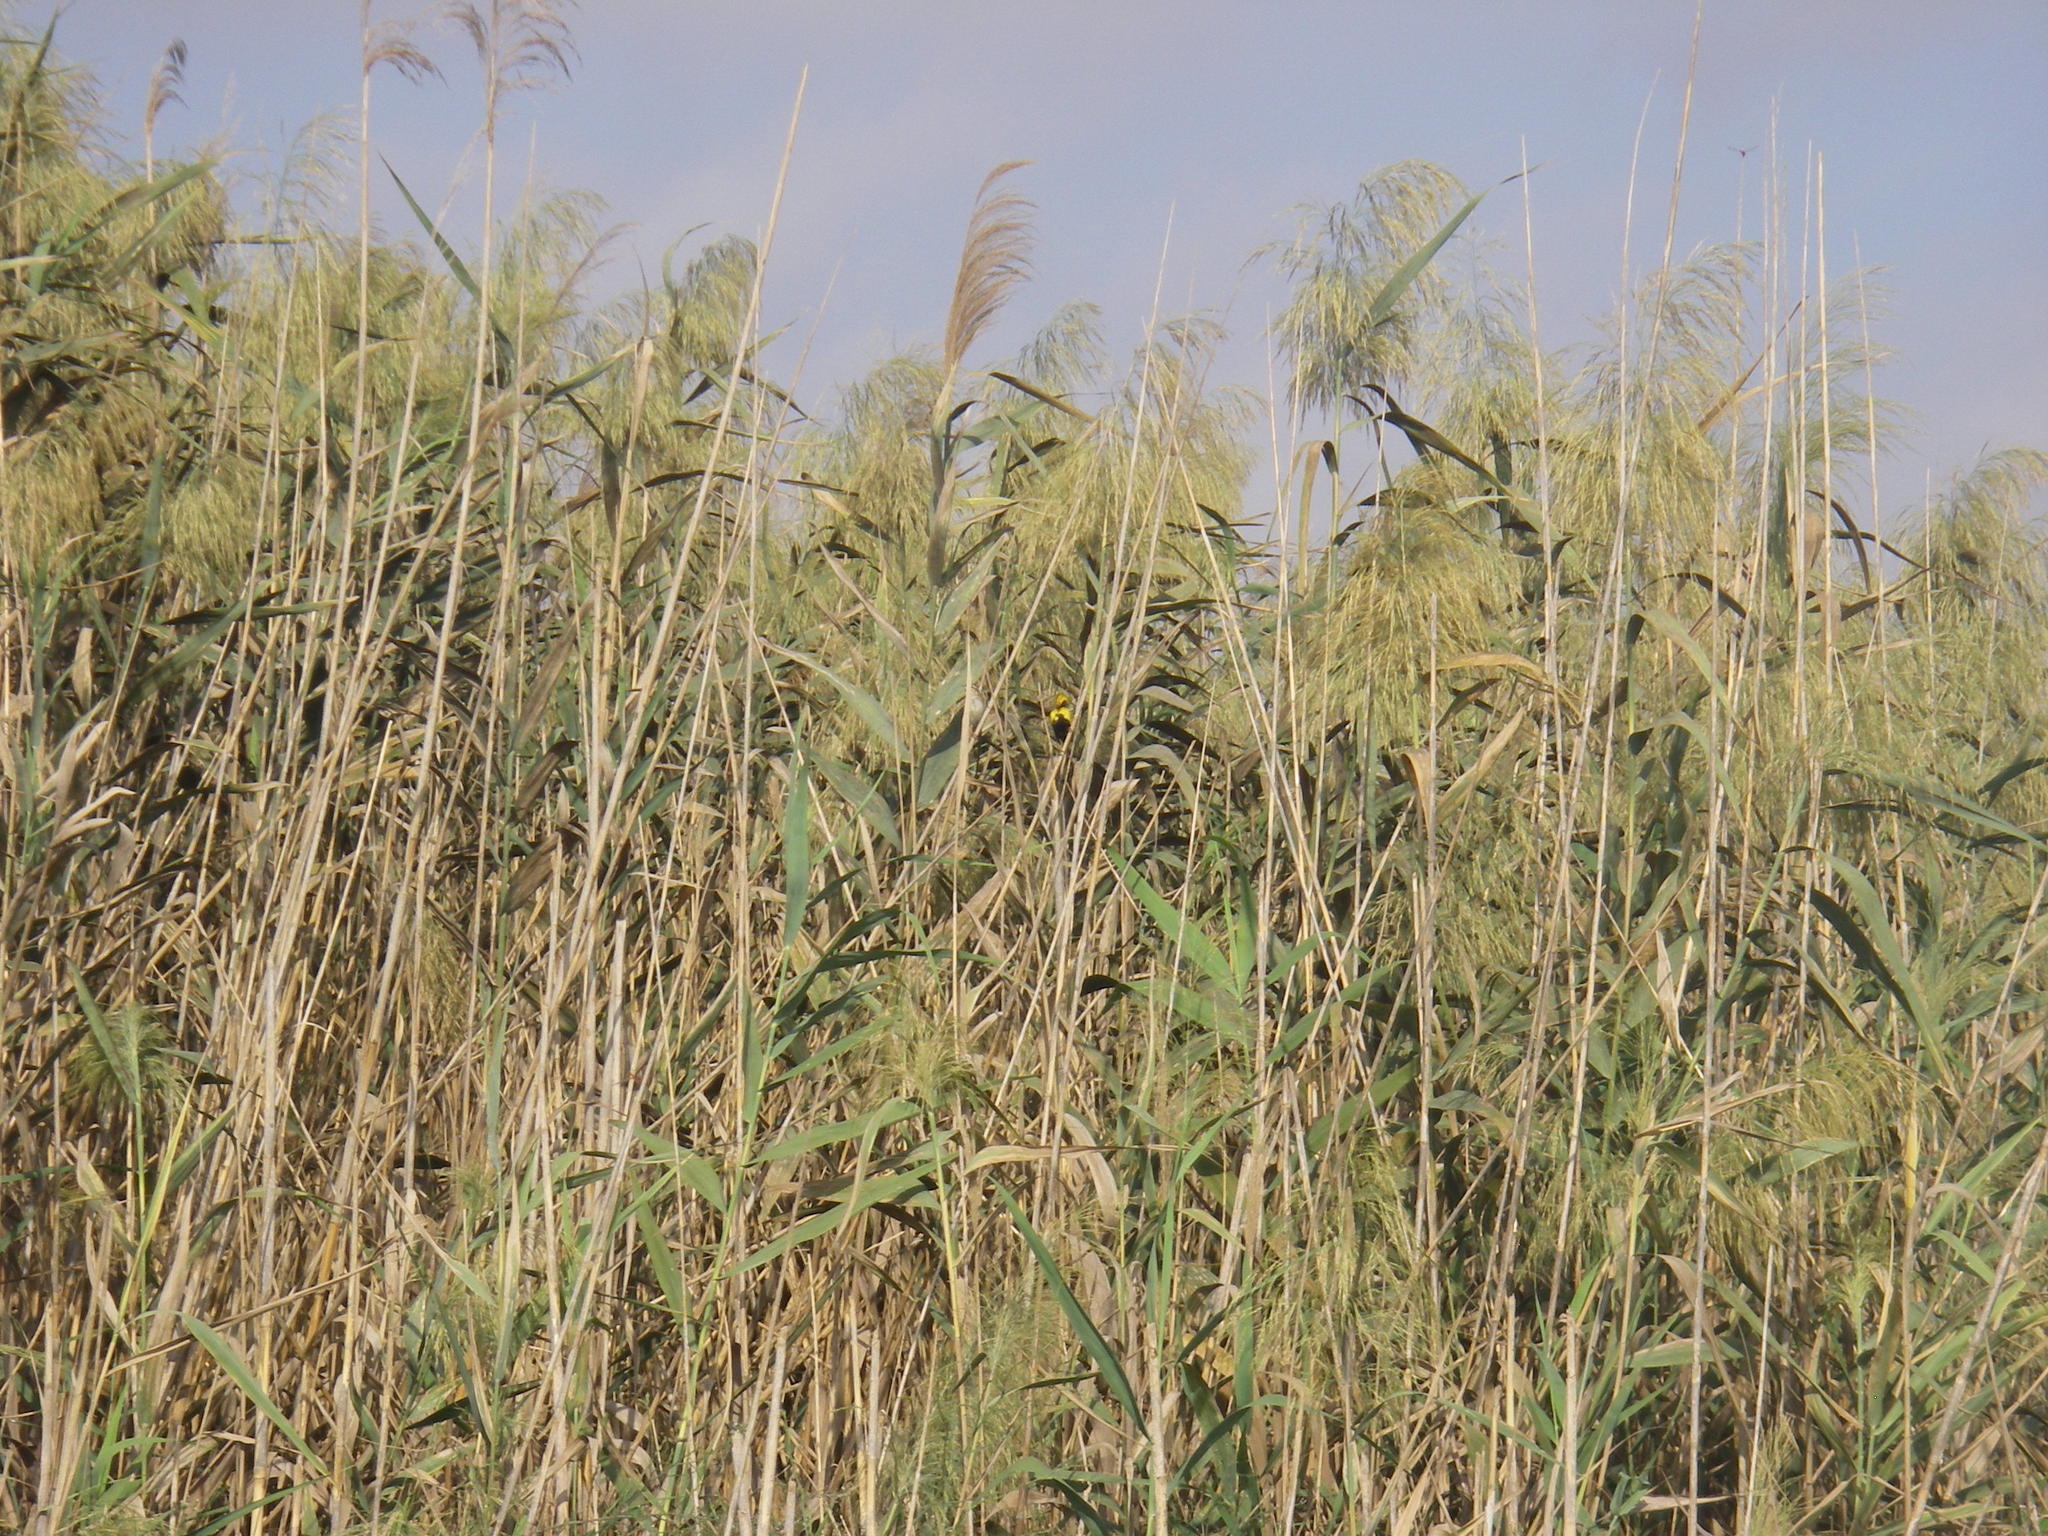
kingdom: Animalia
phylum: Chordata
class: Aves
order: Passeriformes
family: Ploceidae
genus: Euplectes
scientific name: Euplectes afer
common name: Yellow-crowned bishop
